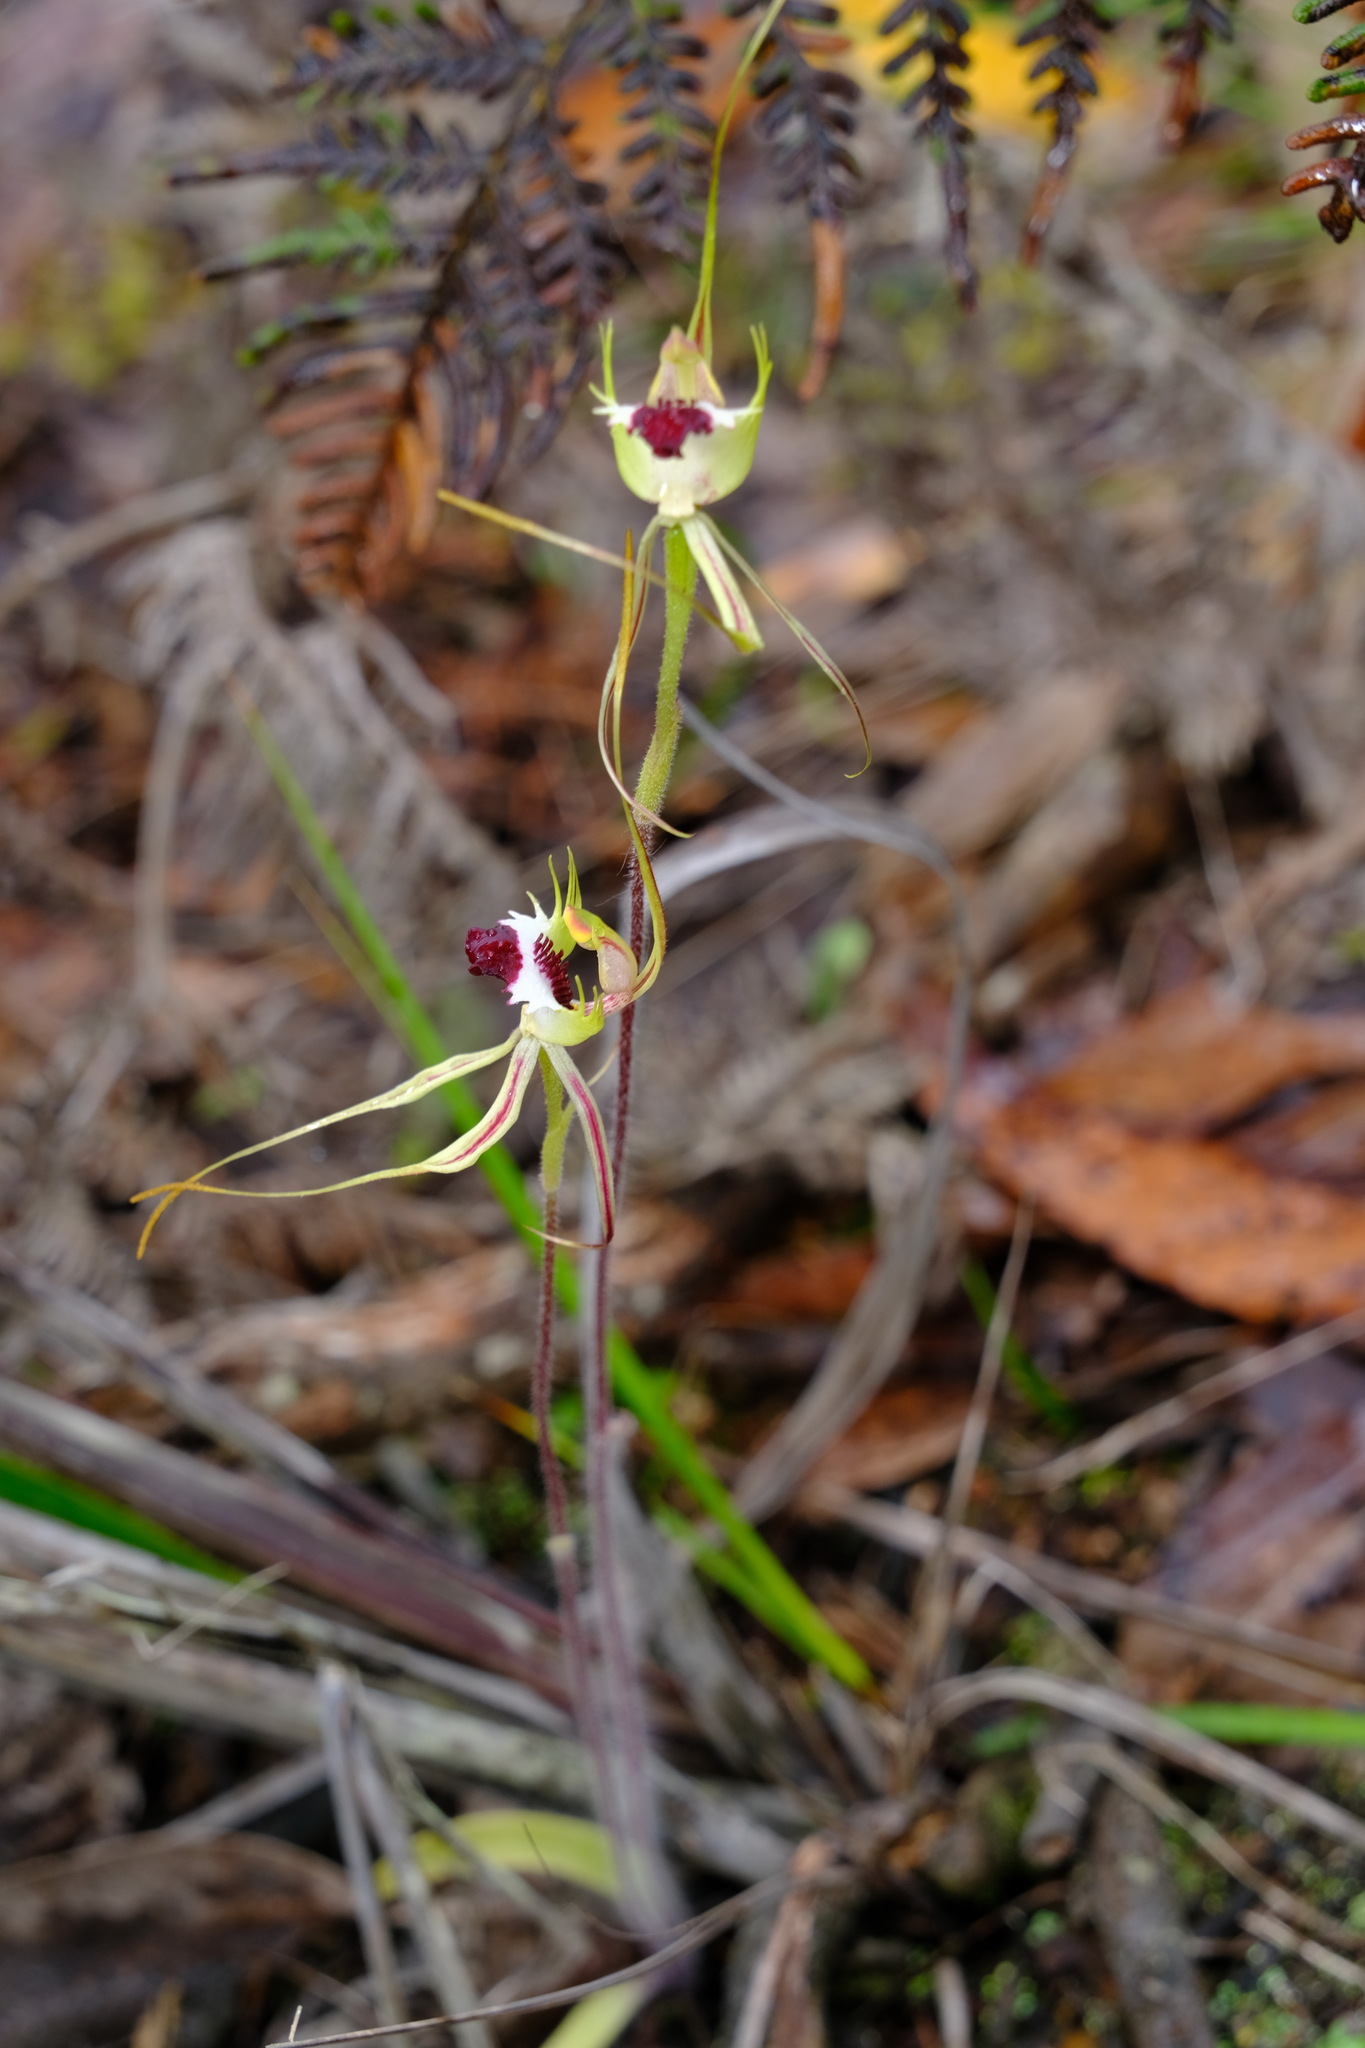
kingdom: Plantae
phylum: Tracheophyta
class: Liliopsida
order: Asparagales
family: Orchidaceae
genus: Caladenia
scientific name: Caladenia tentaculata
